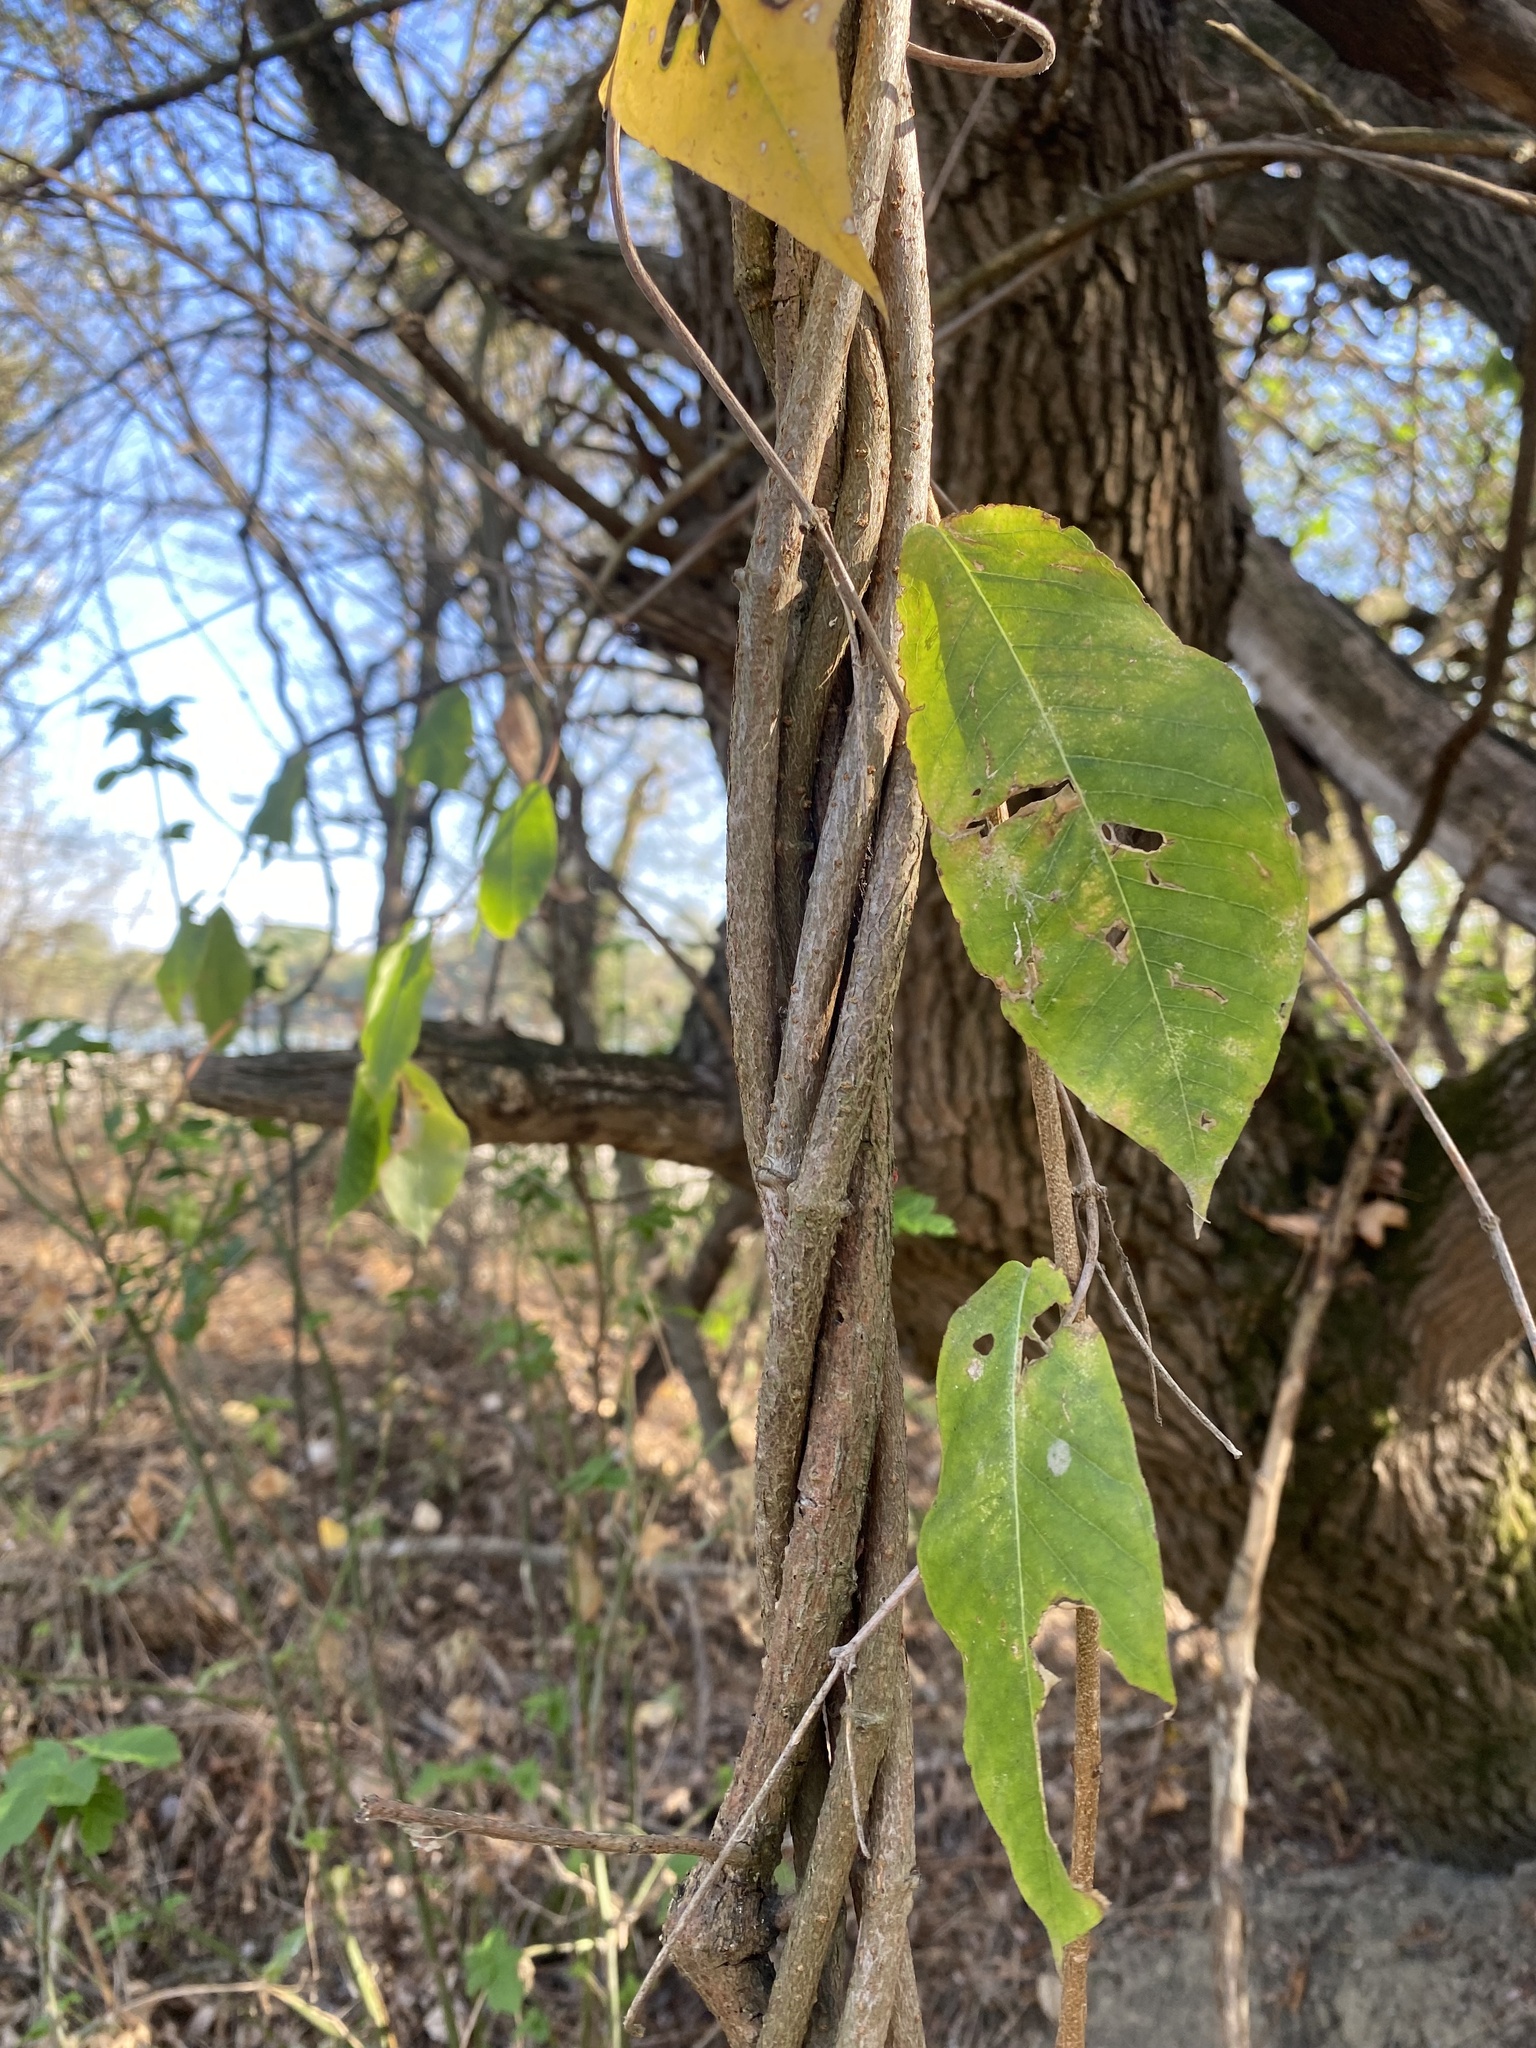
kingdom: Plantae
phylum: Tracheophyta
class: Magnoliopsida
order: Gentianales
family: Apocynaceae
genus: Periploca
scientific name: Periploca graeca
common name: Silkvine
